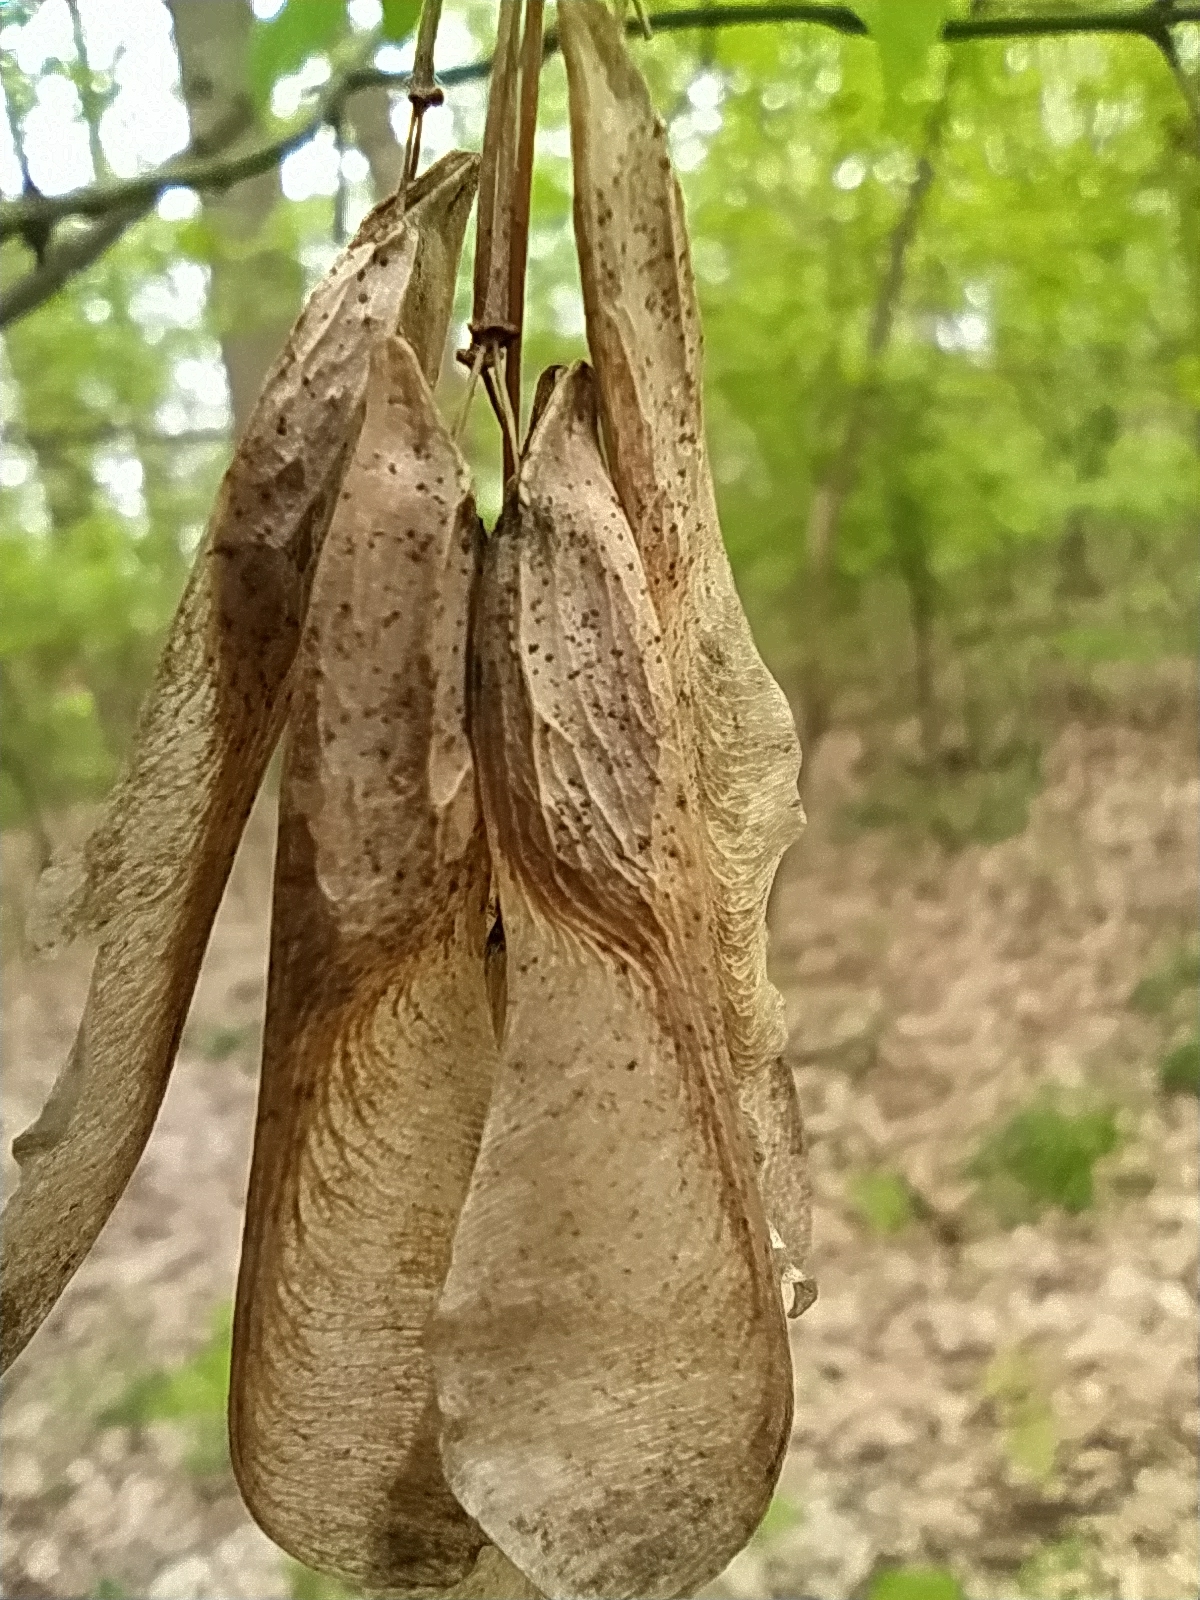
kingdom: Plantae
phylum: Tracheophyta
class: Magnoliopsida
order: Sapindales
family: Sapindaceae
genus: Acer
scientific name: Acer negundo
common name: Ashleaf maple
